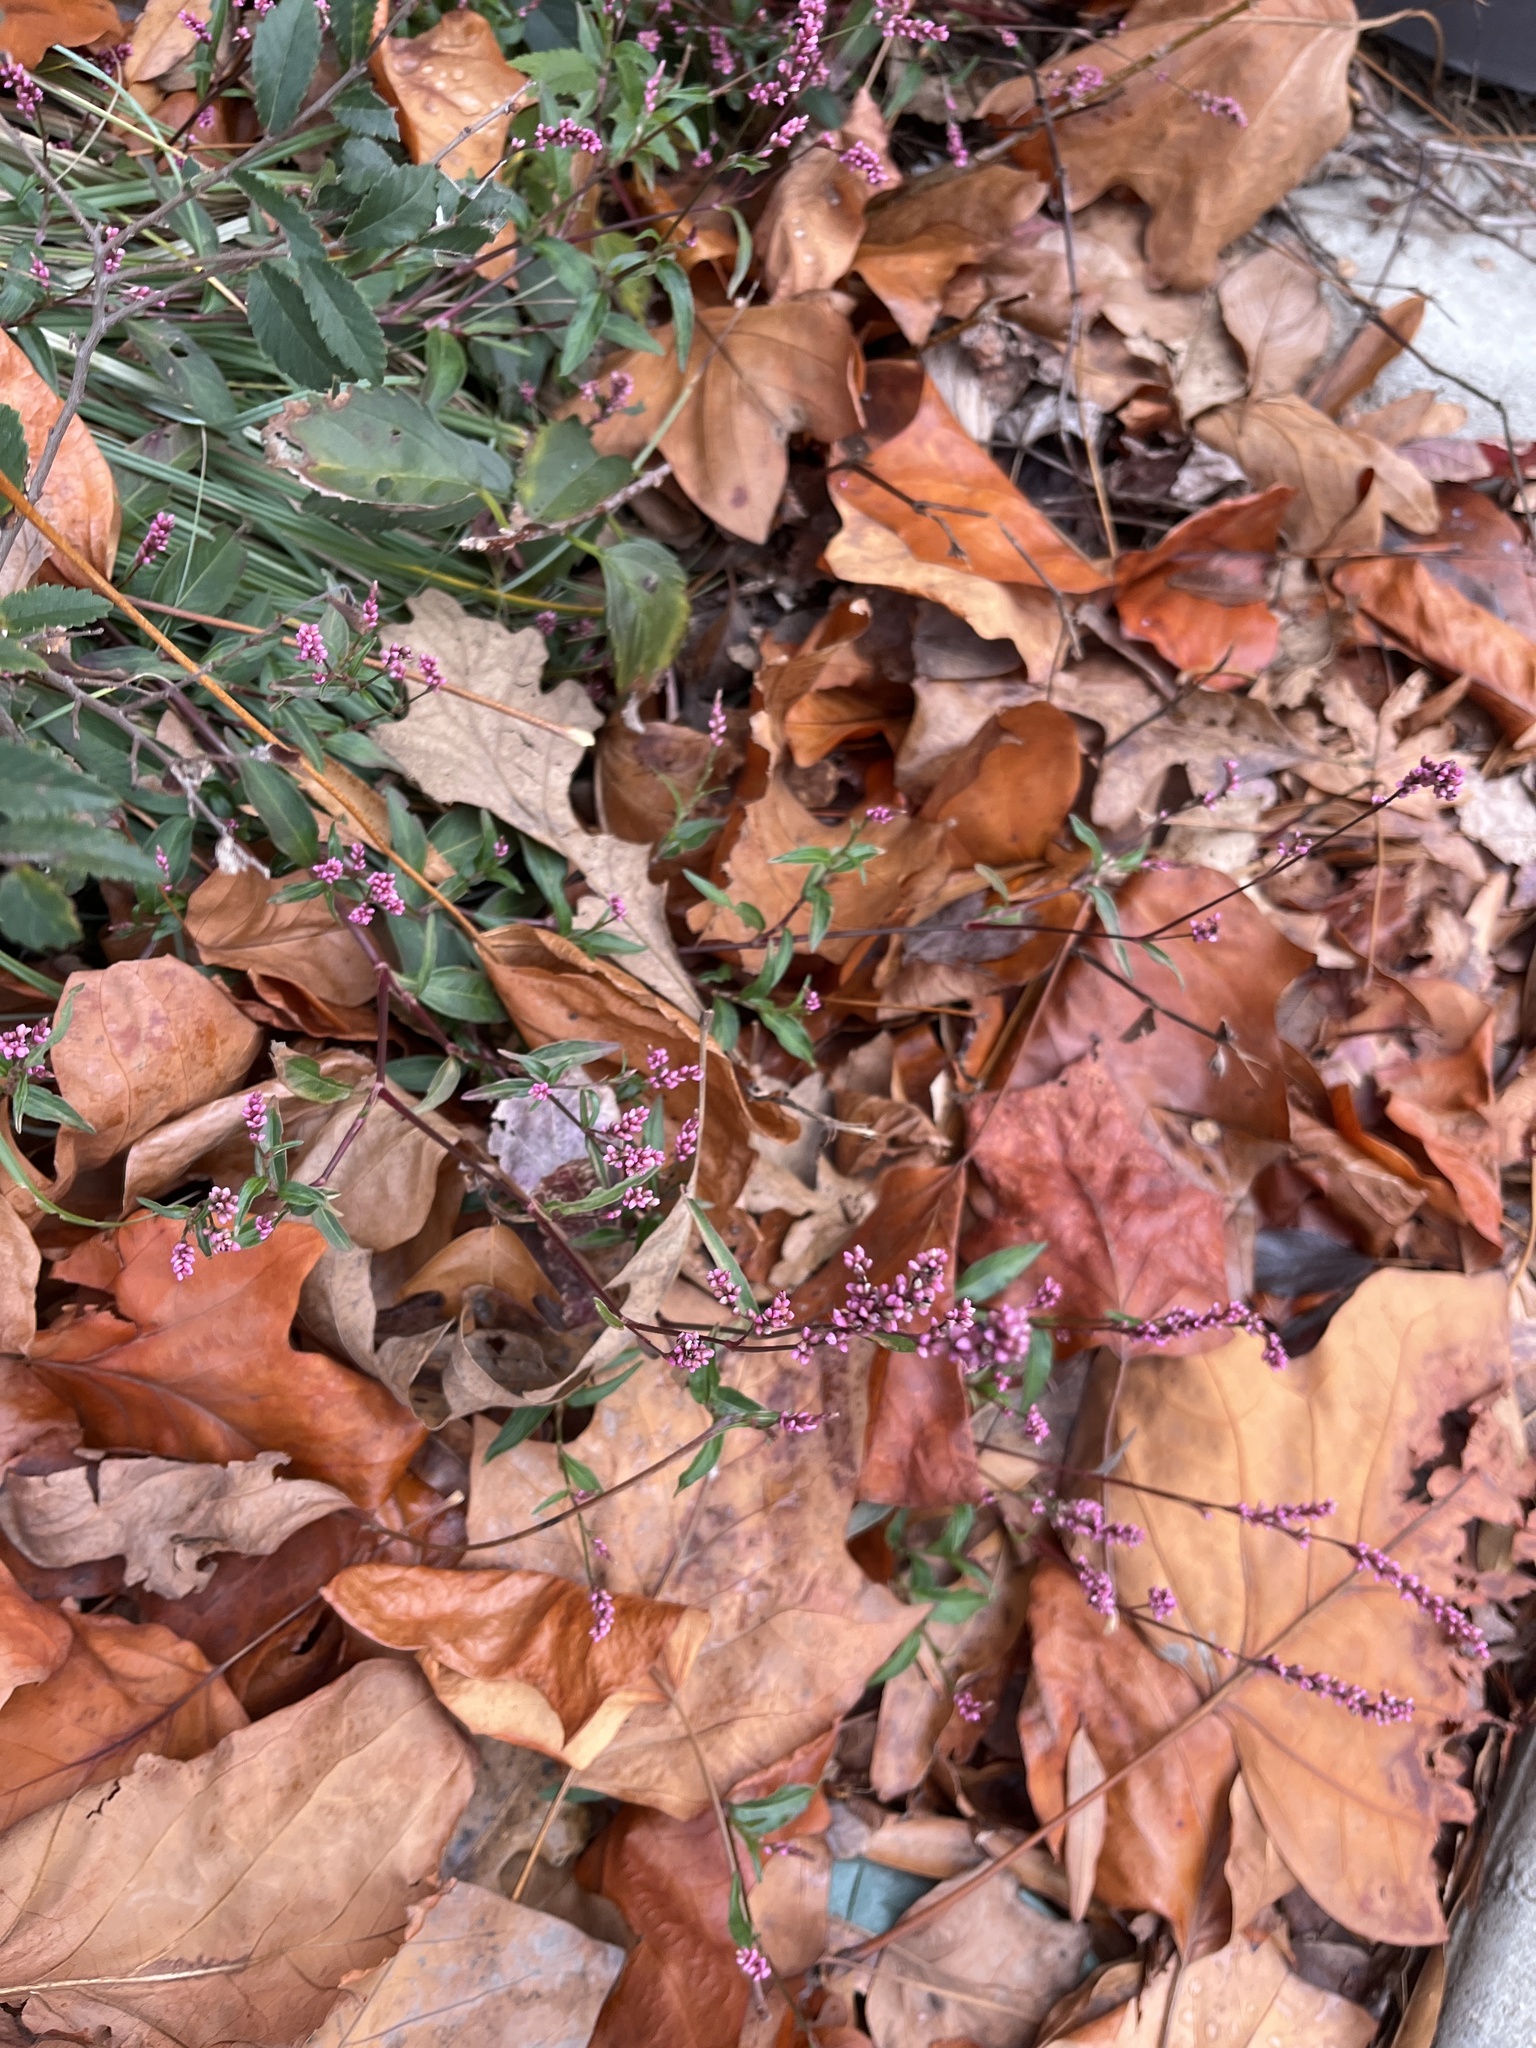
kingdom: Plantae
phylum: Tracheophyta
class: Magnoliopsida
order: Caryophyllales
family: Polygonaceae
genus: Persicaria
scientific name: Persicaria longiseta
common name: Bristly lady's-thumb
